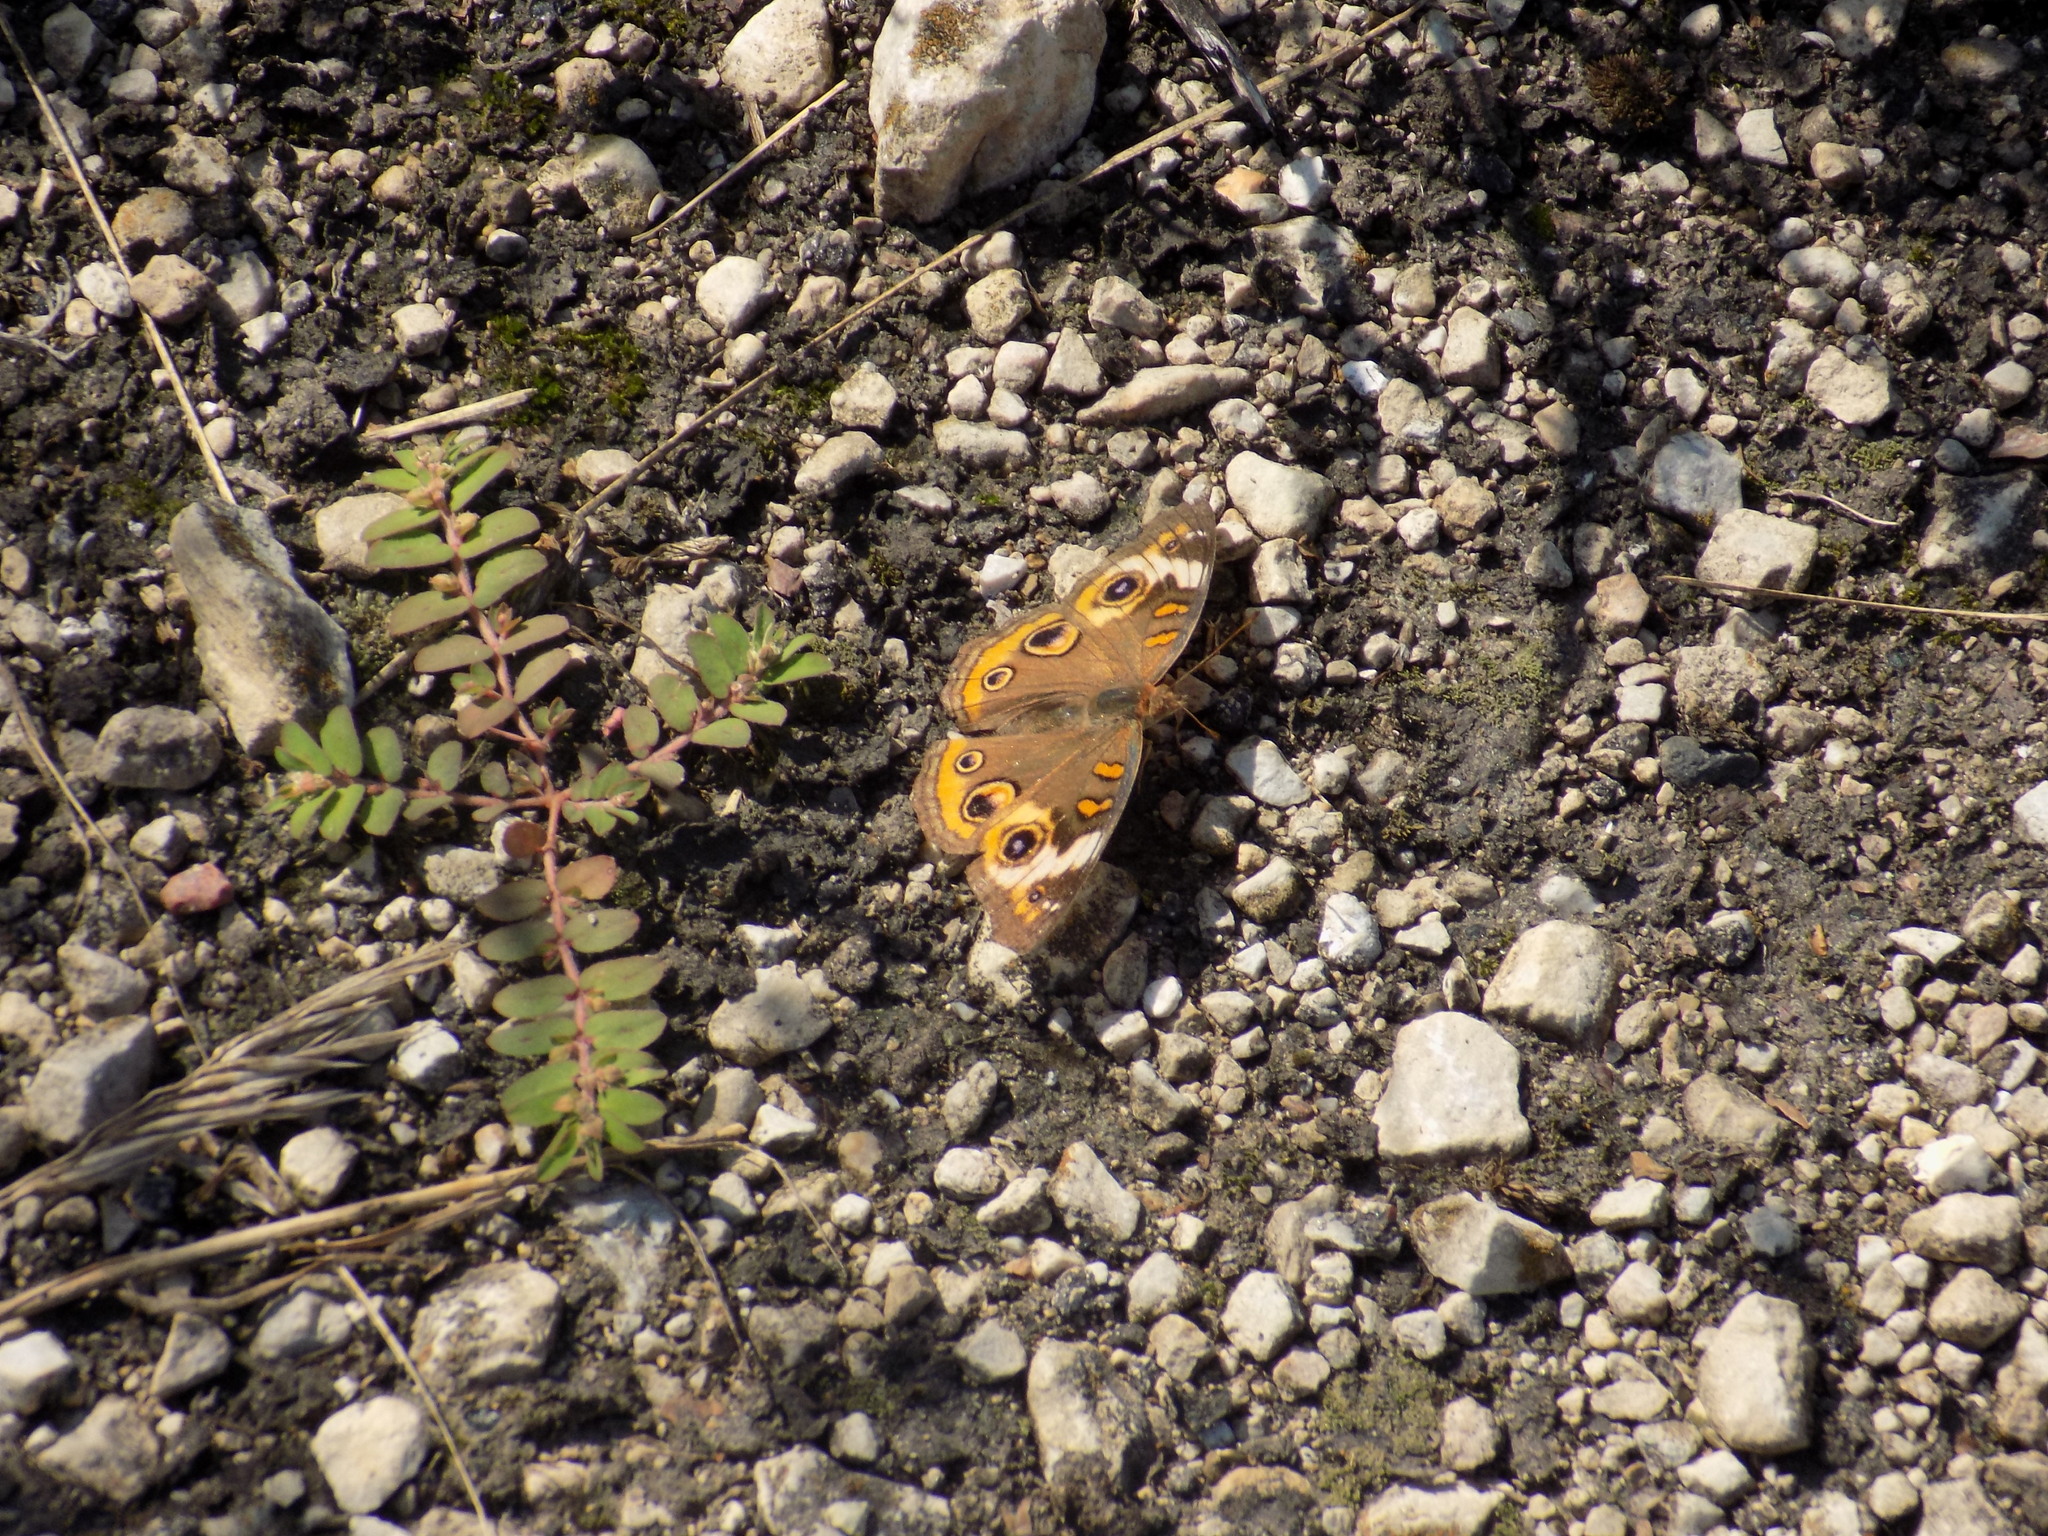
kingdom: Animalia
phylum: Arthropoda
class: Insecta
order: Lepidoptera
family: Nymphalidae
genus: Junonia
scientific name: Junonia coenia
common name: Common buckeye
